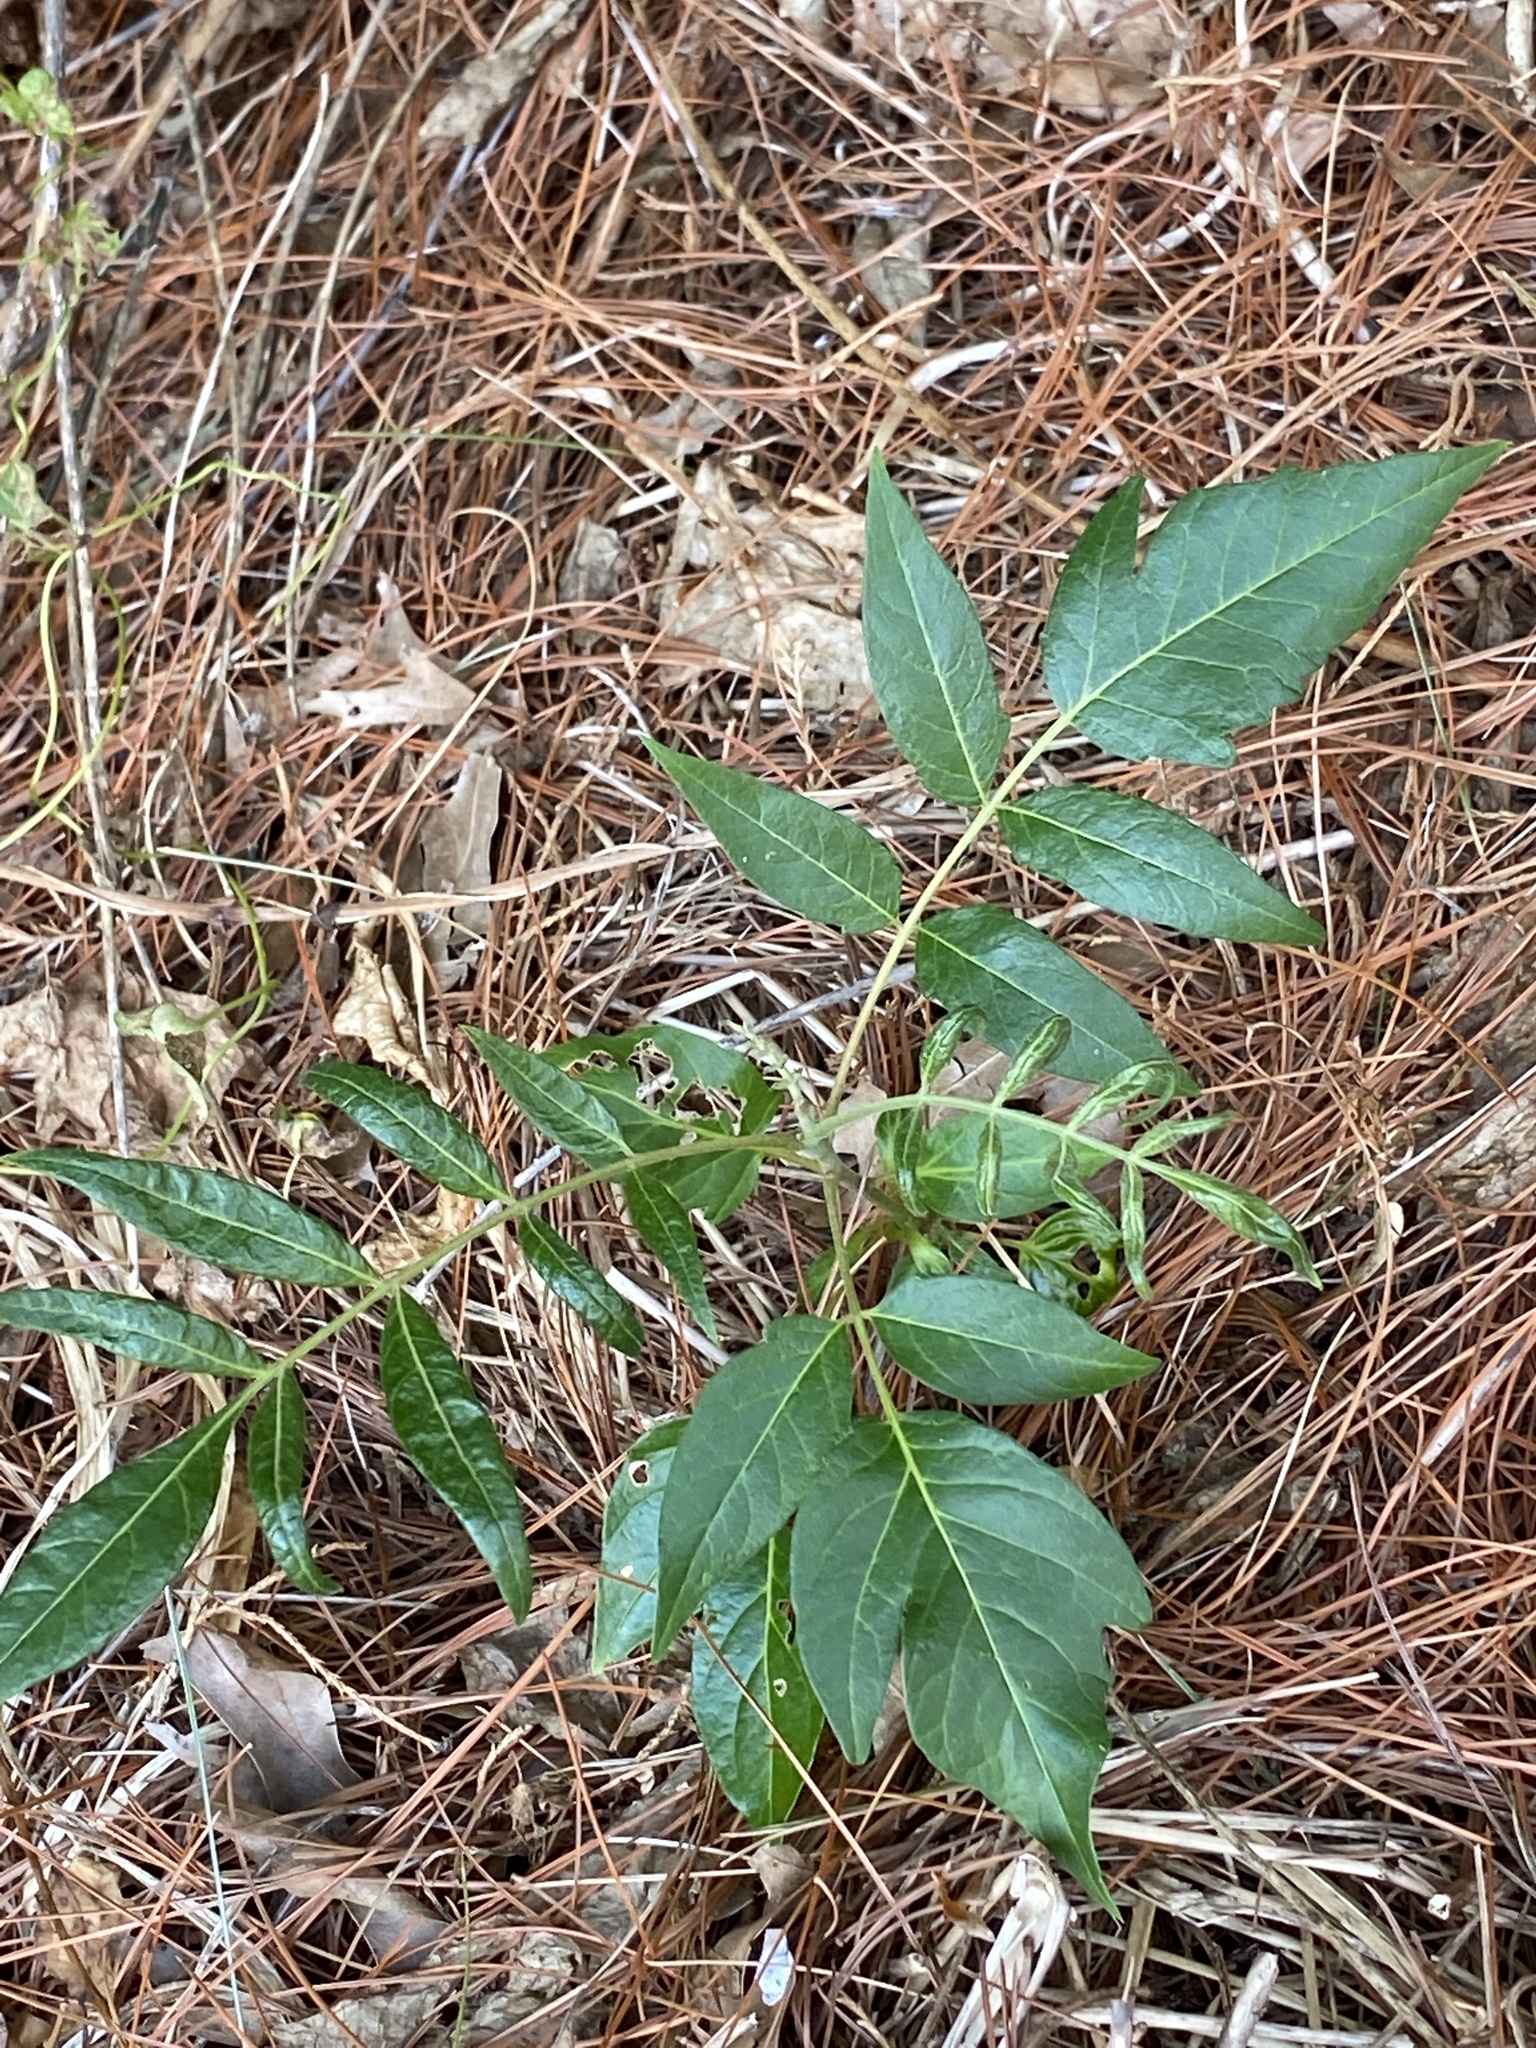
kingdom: Plantae
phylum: Tracheophyta
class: Magnoliopsida
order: Sapindales
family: Simaroubaceae
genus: Ailanthus
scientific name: Ailanthus altissima
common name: Tree-of-heaven
